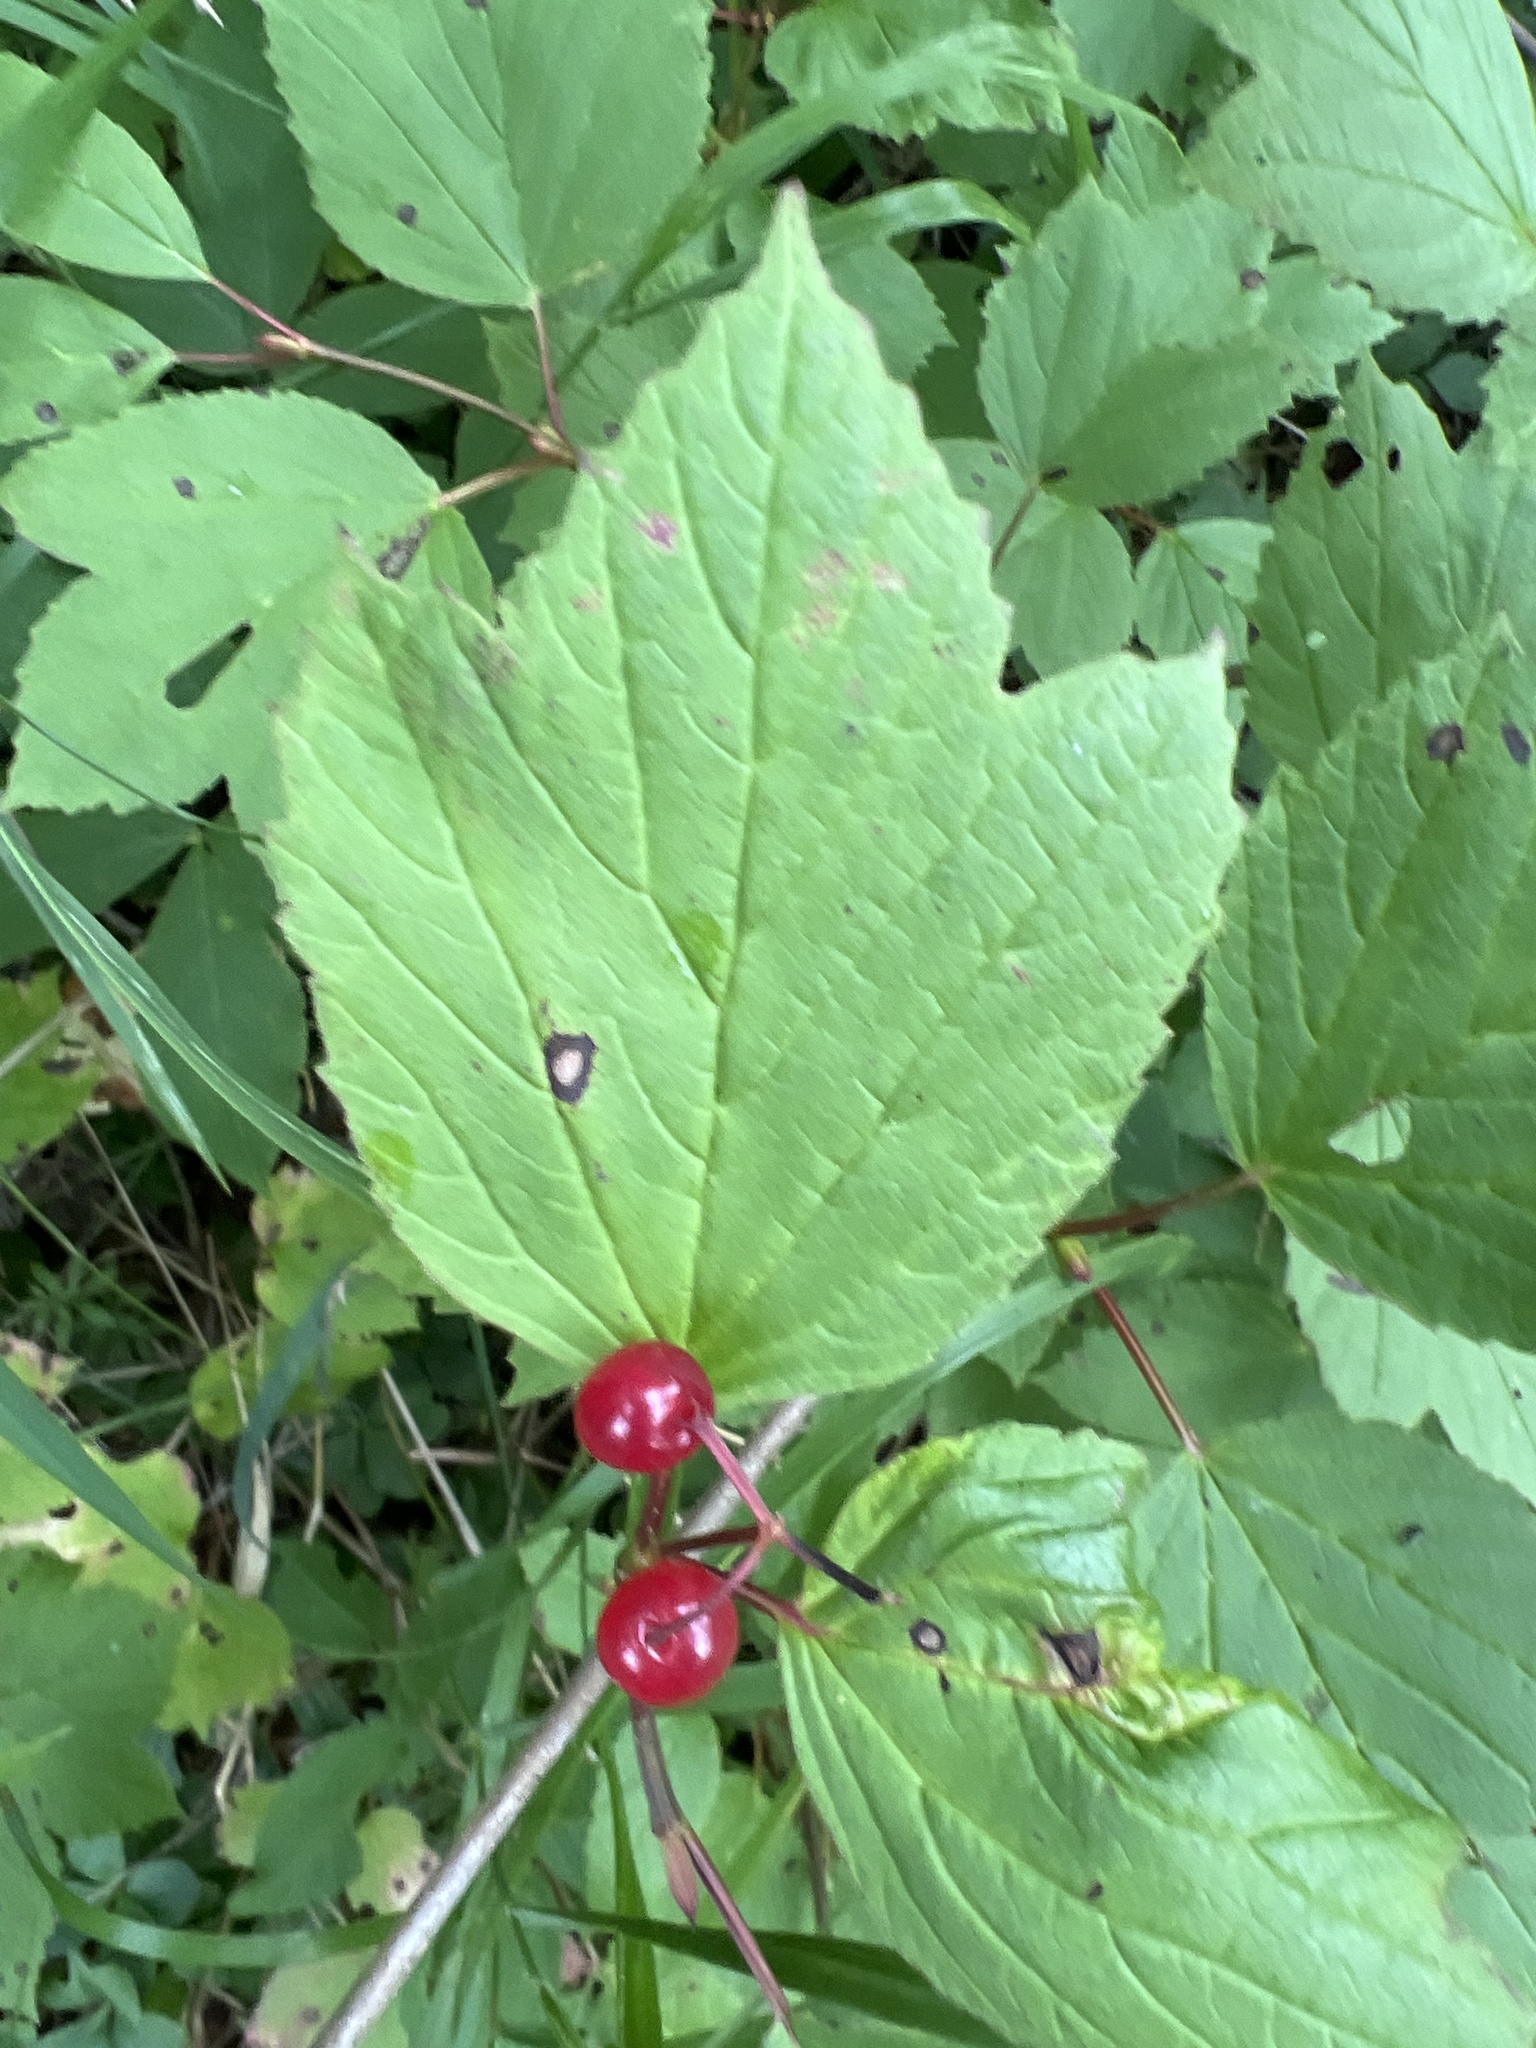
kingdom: Plantae
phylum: Tracheophyta
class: Magnoliopsida
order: Dipsacales
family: Viburnaceae
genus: Viburnum
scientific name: Viburnum edule
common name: Mooseberry
